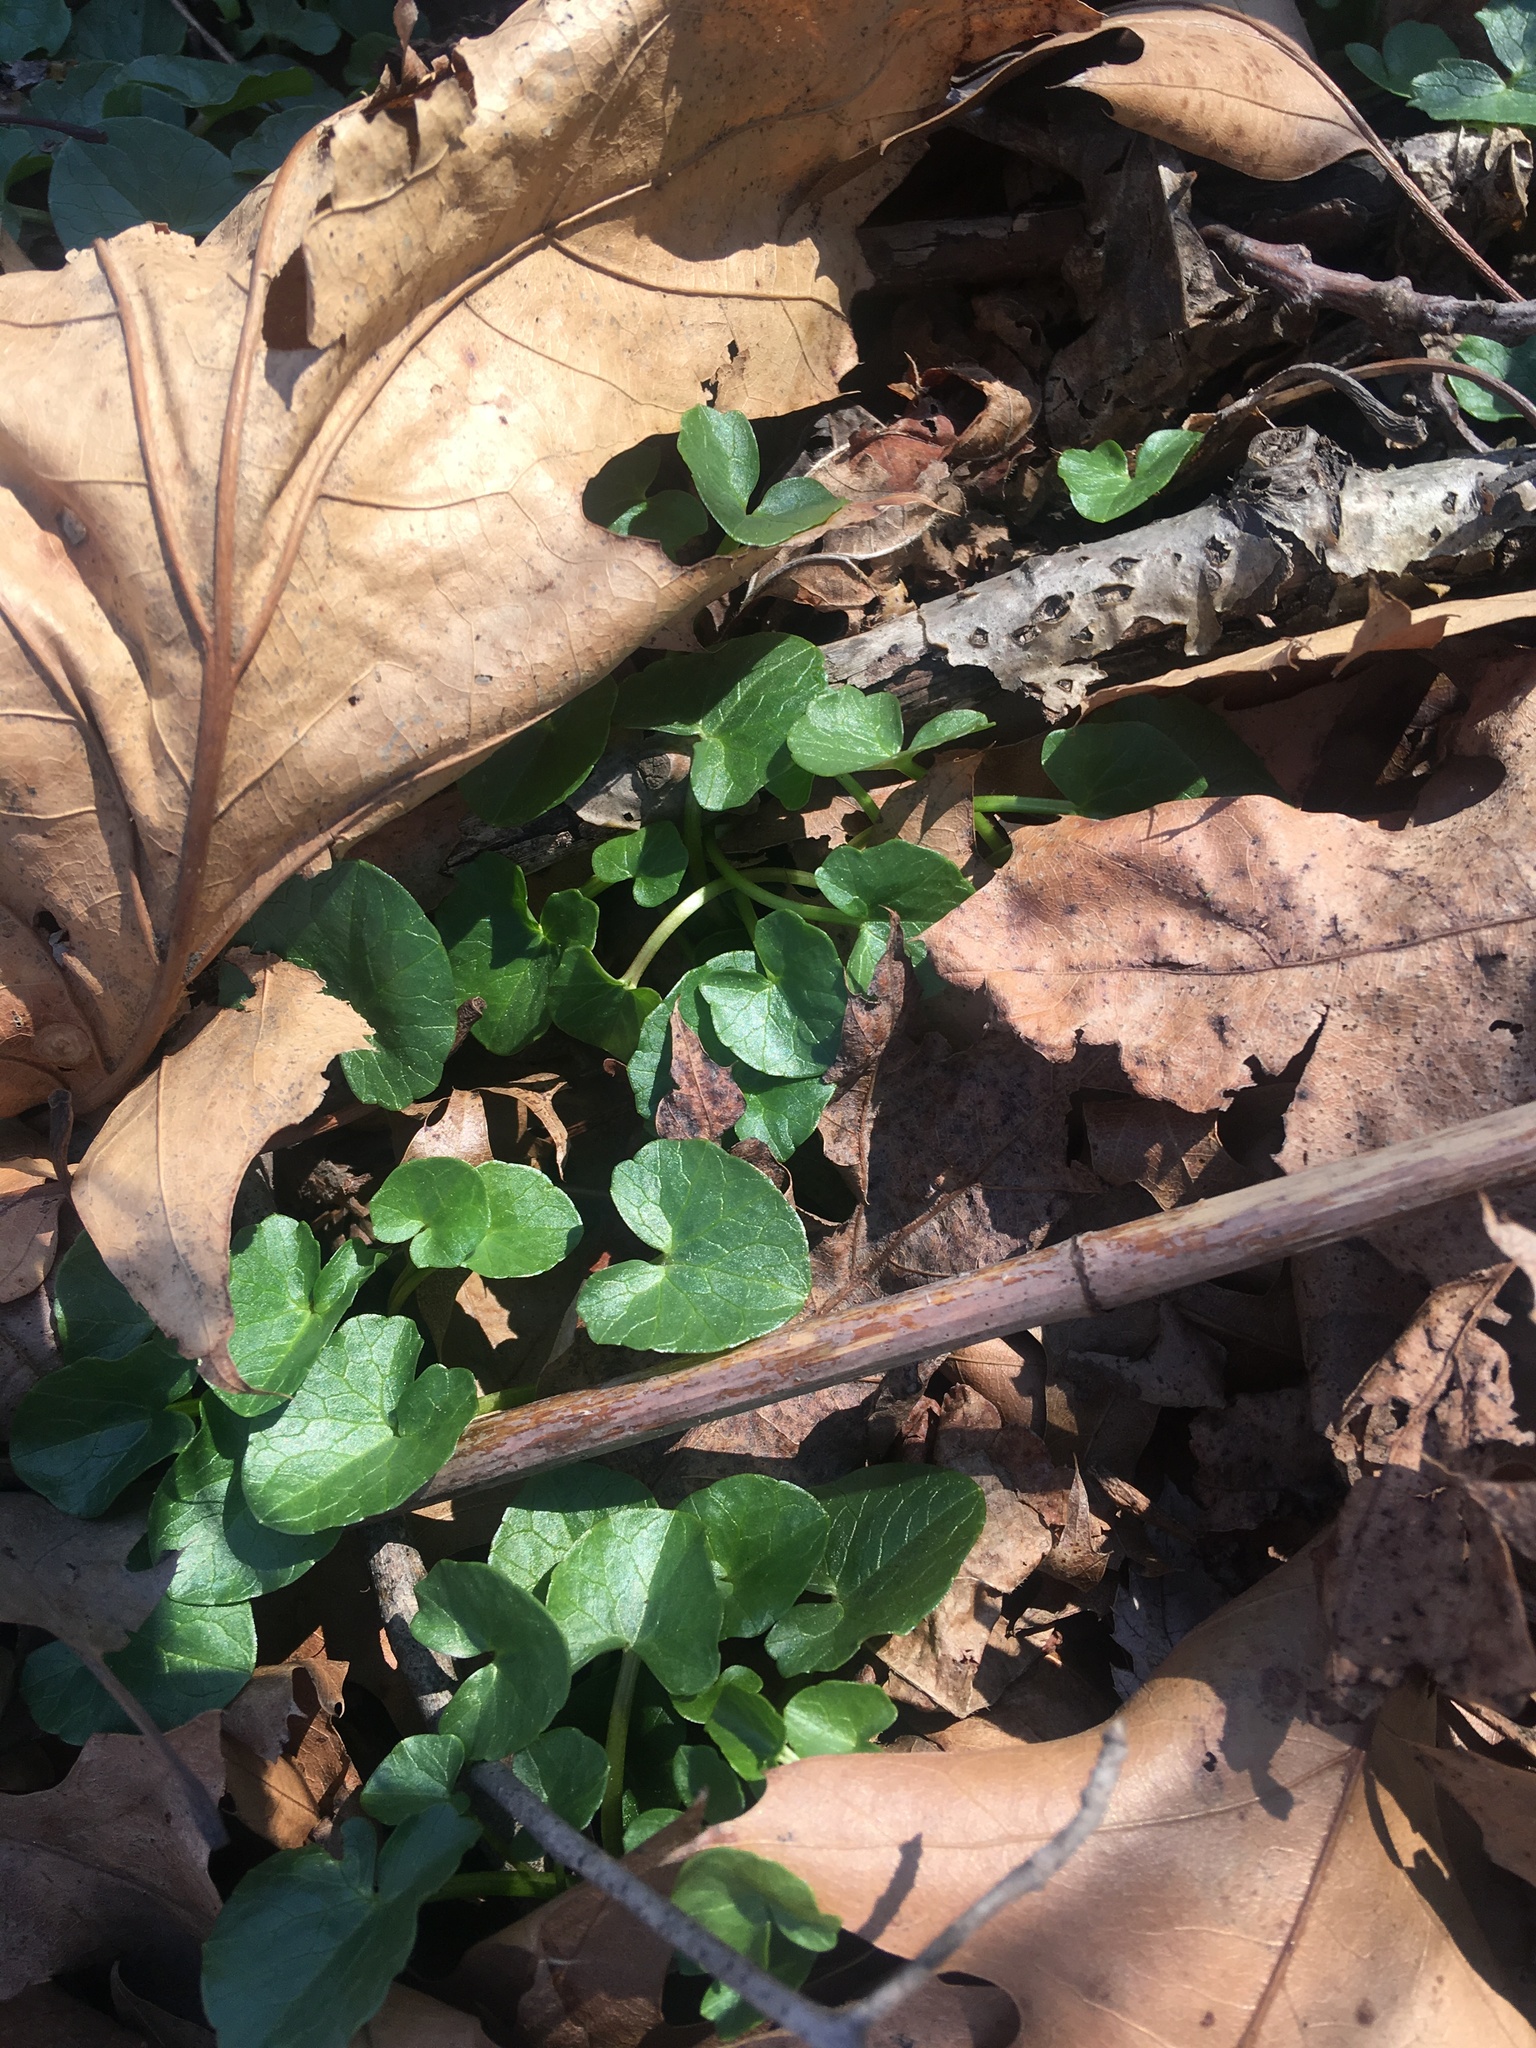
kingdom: Plantae
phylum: Tracheophyta
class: Magnoliopsida
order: Ranunculales
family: Ranunculaceae
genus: Ficaria
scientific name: Ficaria verna
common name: Lesser celandine
